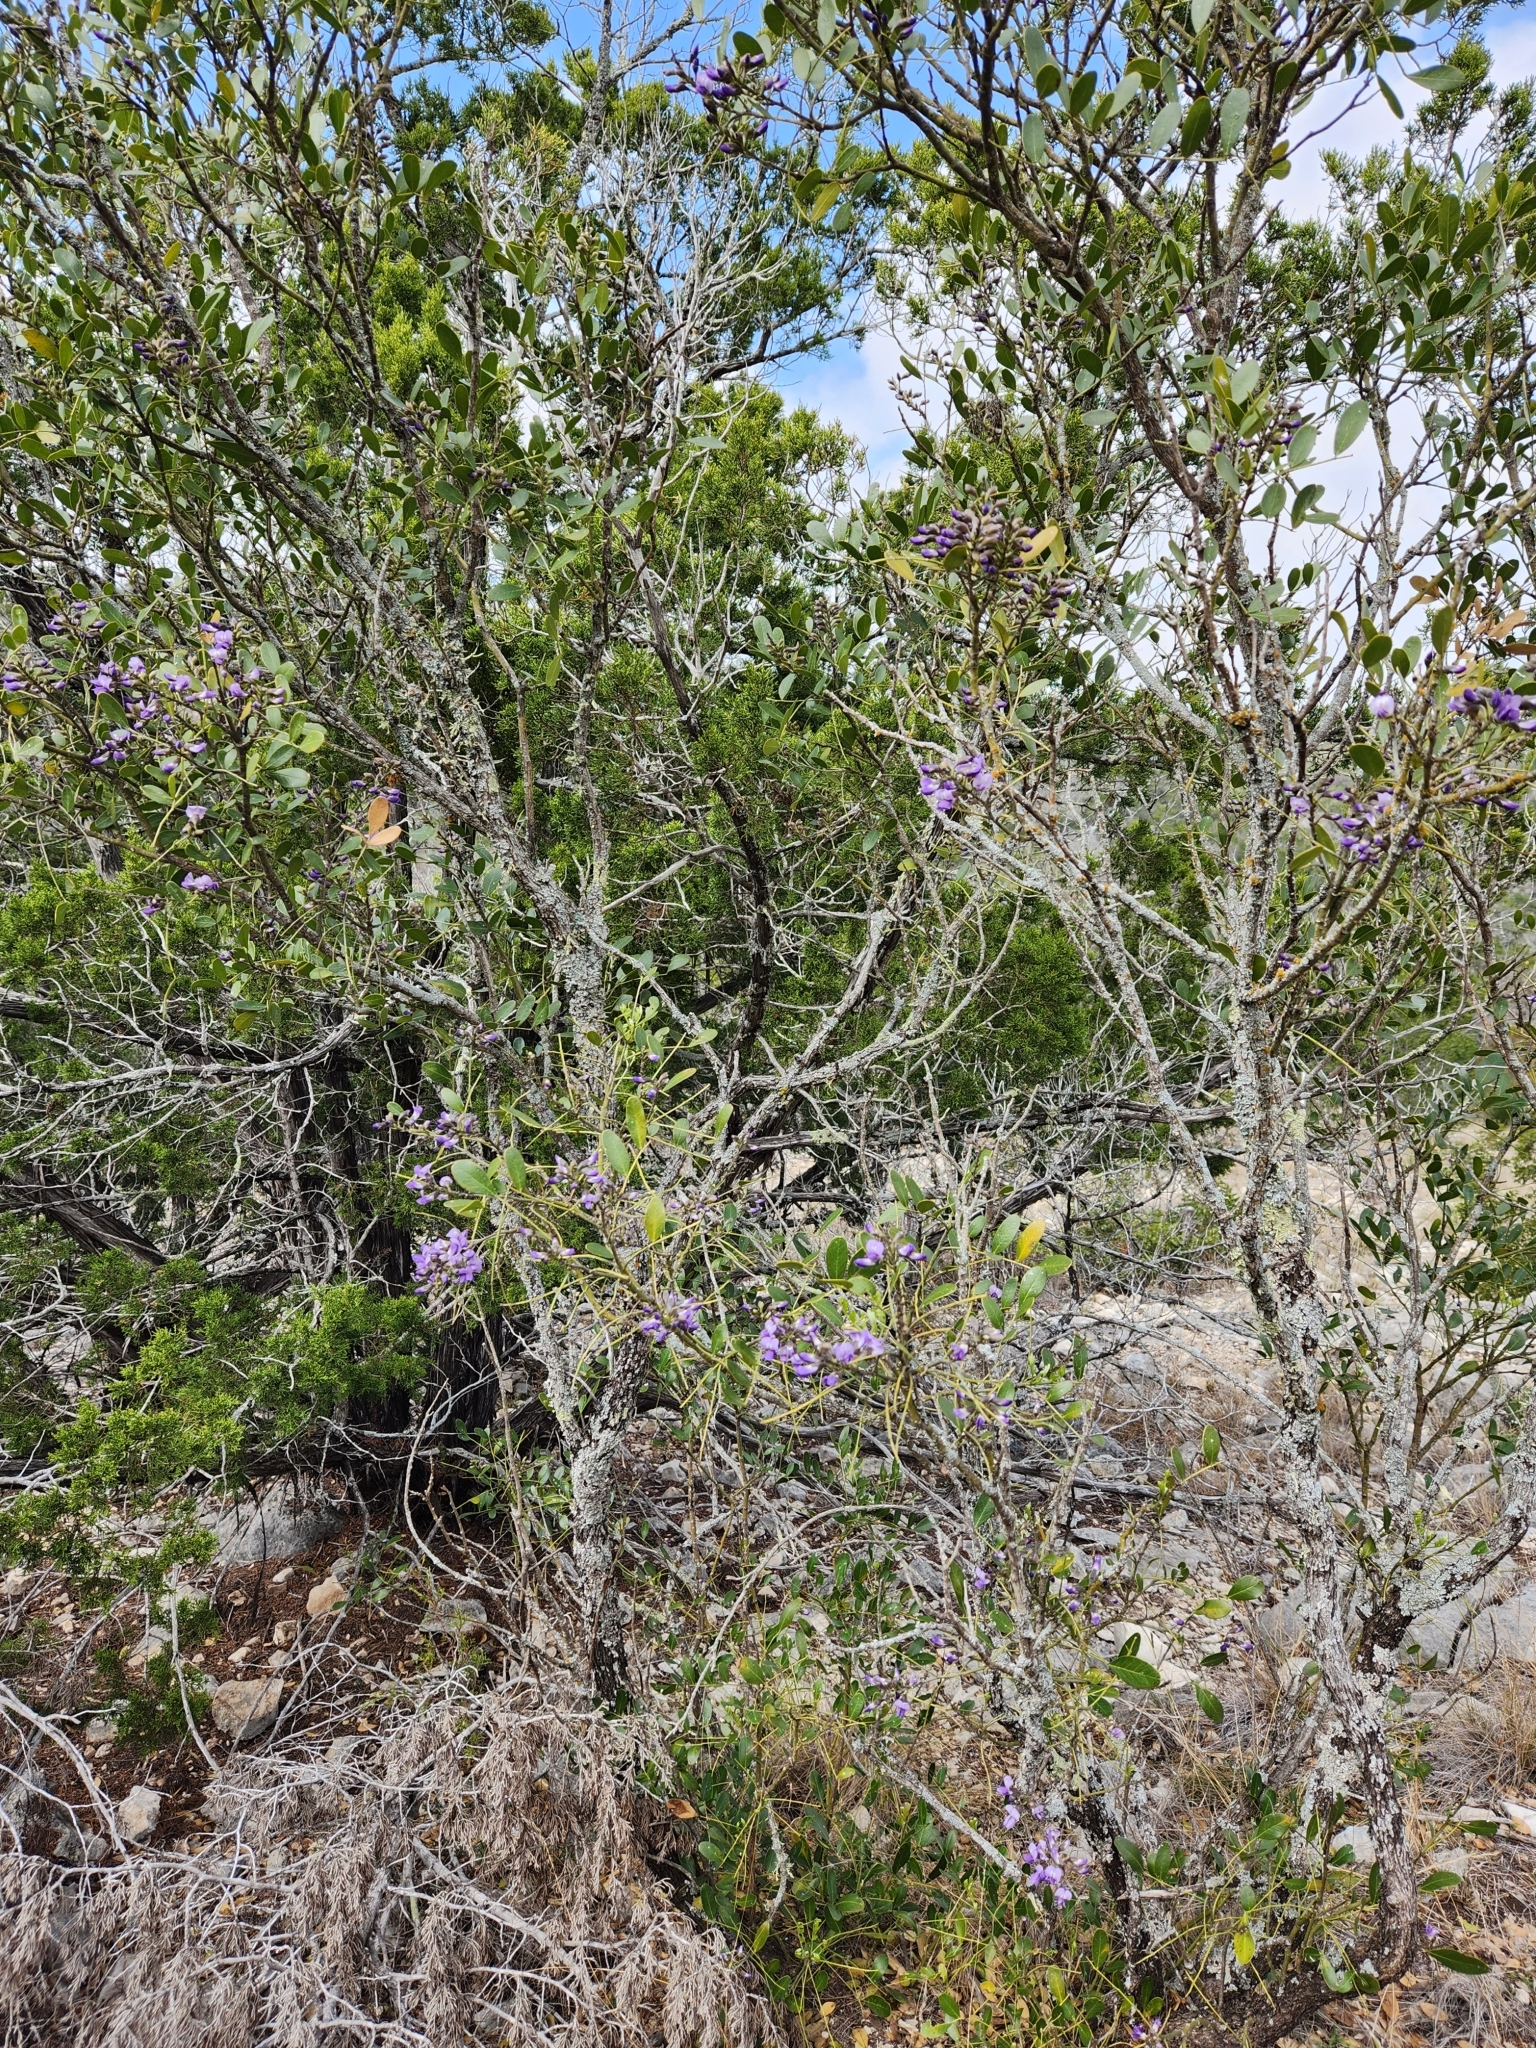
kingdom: Plantae
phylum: Tracheophyta
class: Magnoliopsida
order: Fabales
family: Fabaceae
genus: Dermatophyllum
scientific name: Dermatophyllum secundiflorum
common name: Texas-mountain-laurel
